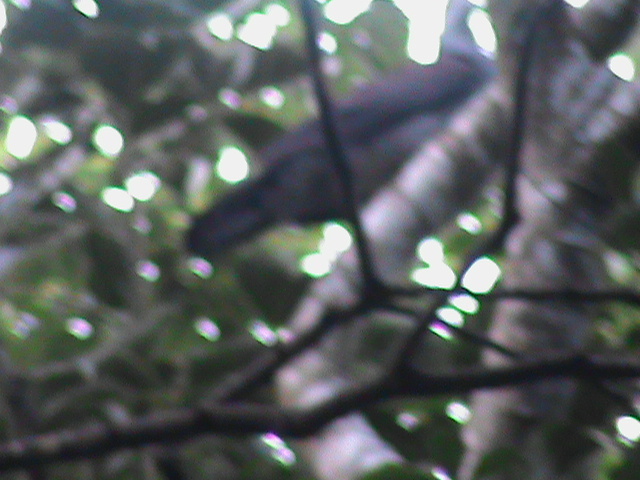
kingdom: Animalia
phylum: Chordata
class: Aves
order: Columbiformes
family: Columbidae
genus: Columba
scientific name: Columba elphinstonii
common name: Nilgiri wood pigeon
